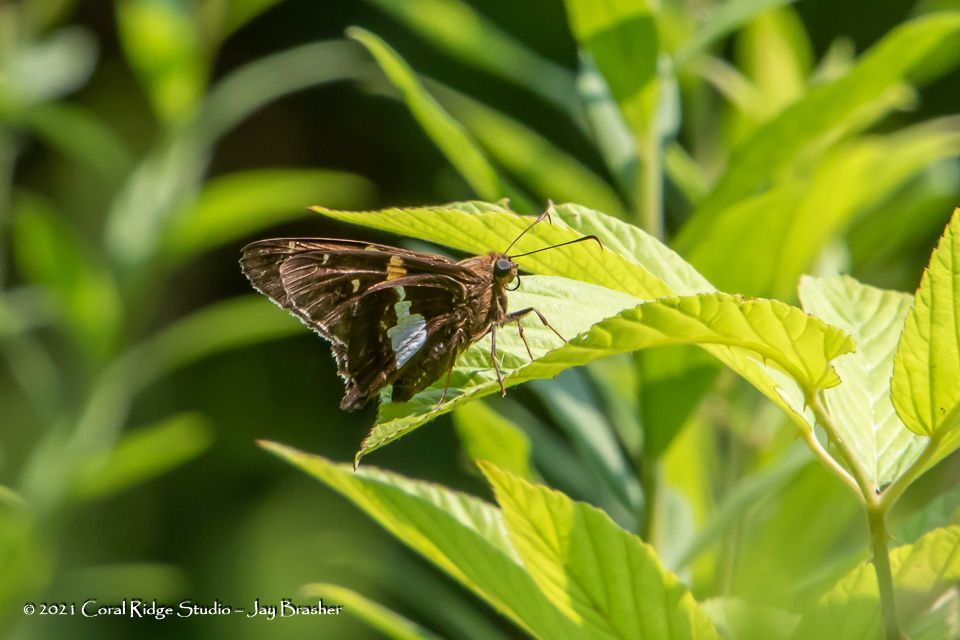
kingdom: Animalia
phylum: Arthropoda
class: Insecta
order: Lepidoptera
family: Hesperiidae
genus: Epargyreus
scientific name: Epargyreus clarus
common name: Silver-spotted skipper
